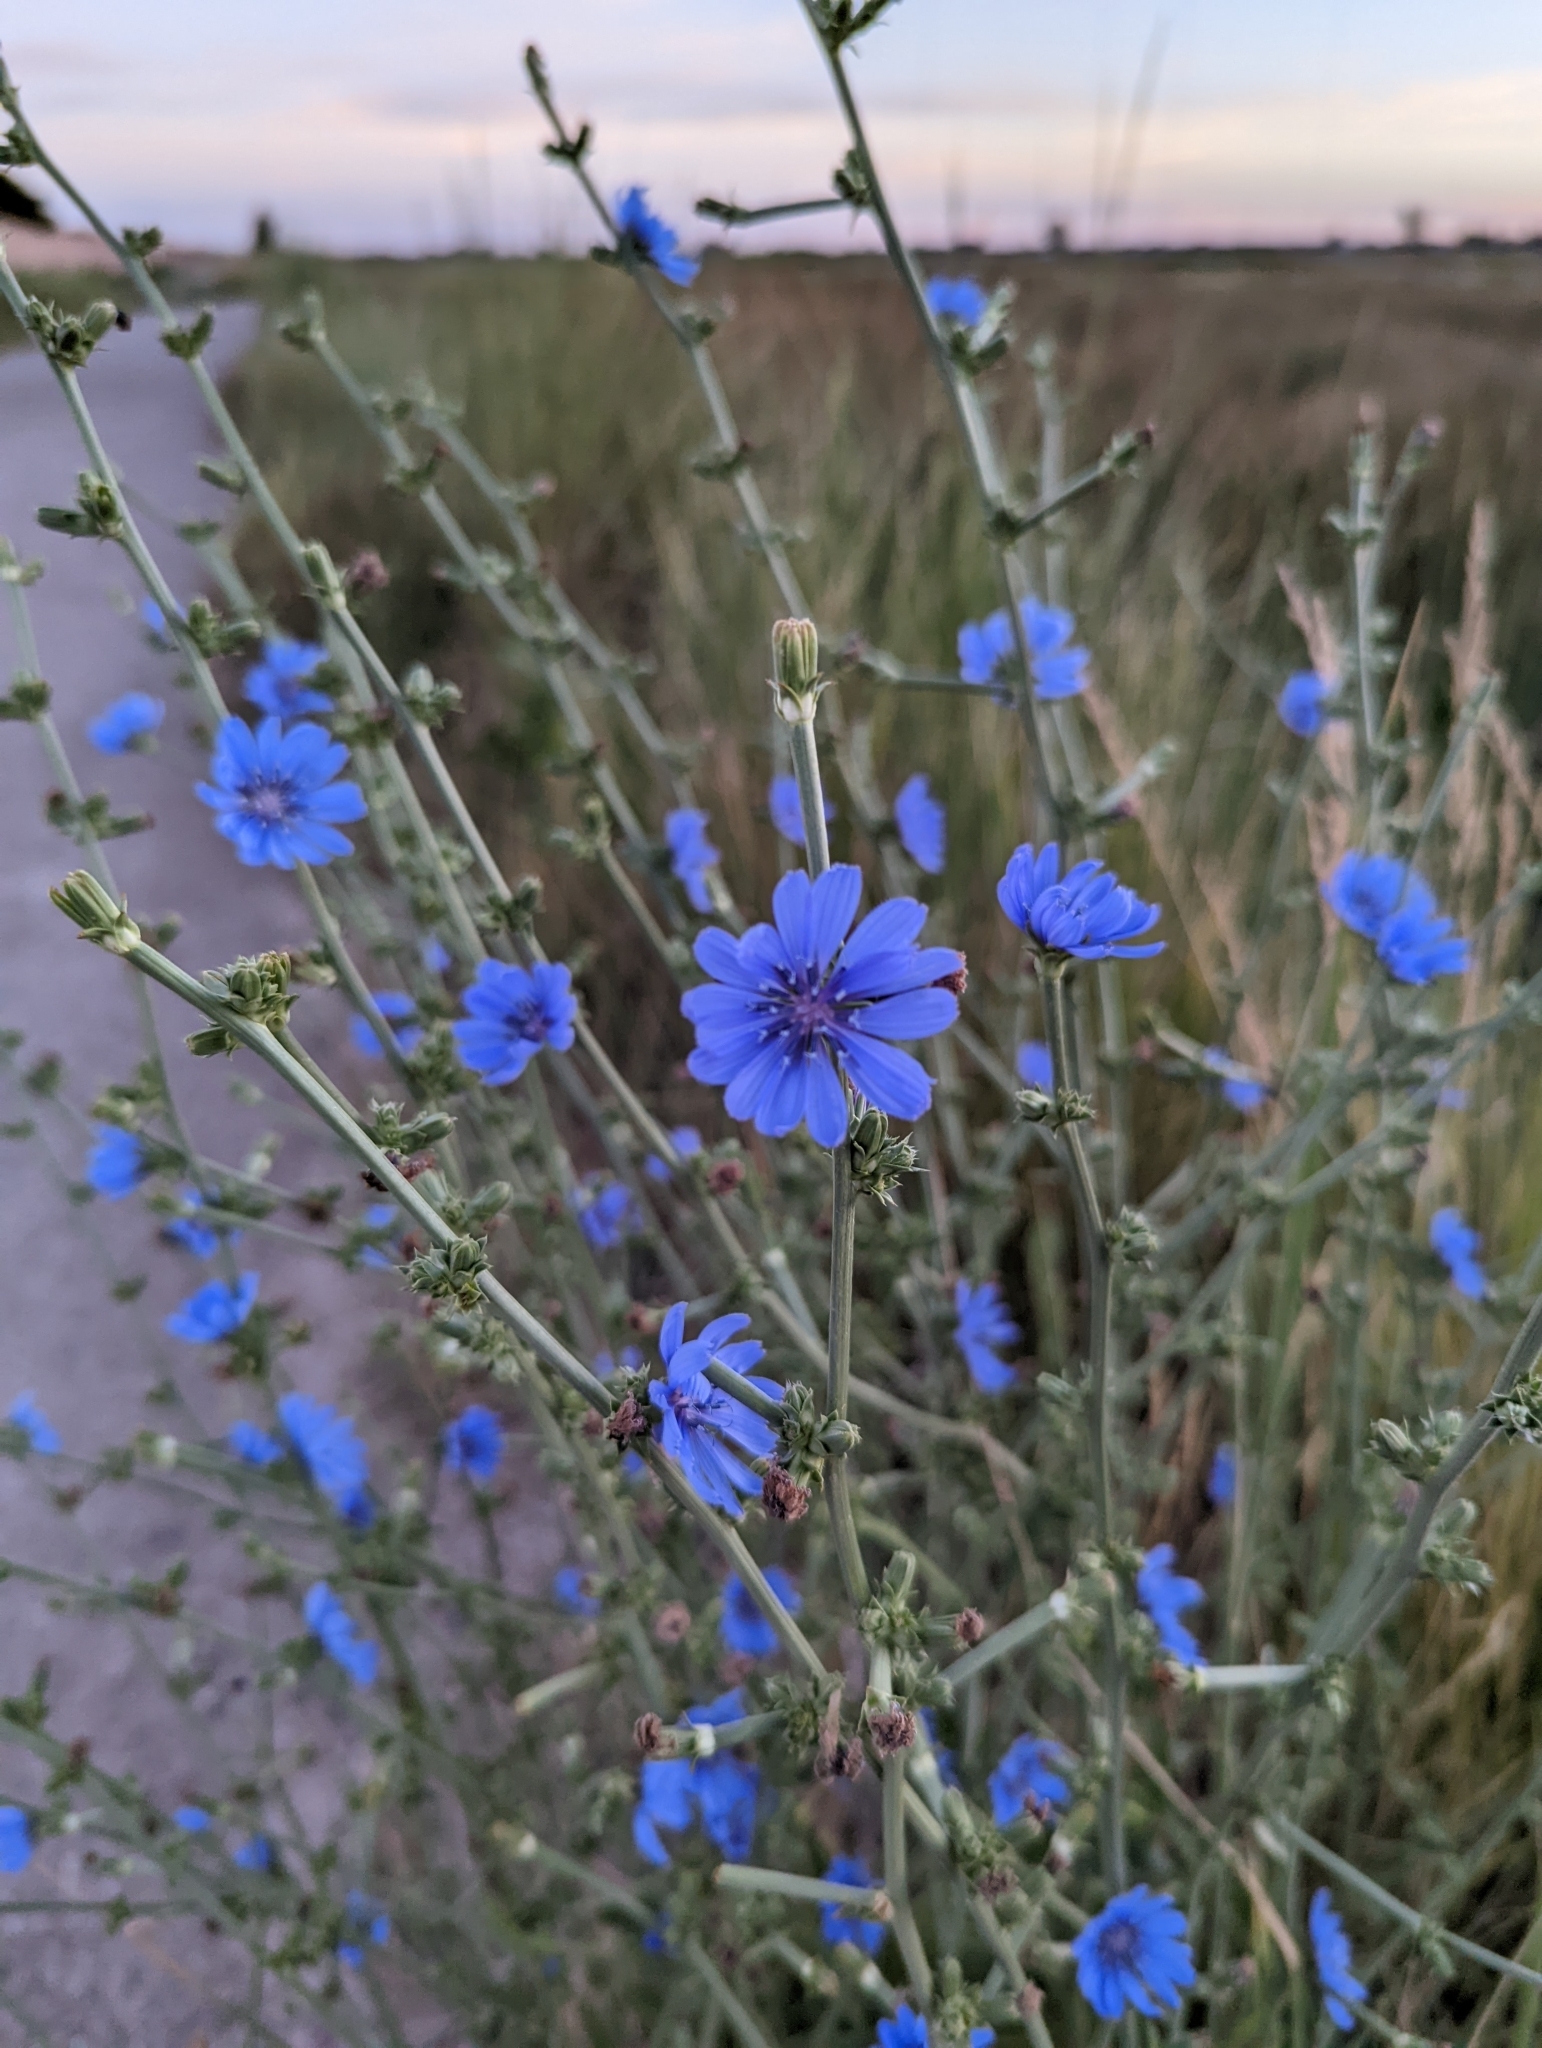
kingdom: Plantae
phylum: Tracheophyta
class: Magnoliopsida
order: Asterales
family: Asteraceae
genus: Cichorium
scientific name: Cichorium intybus
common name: Chicory
